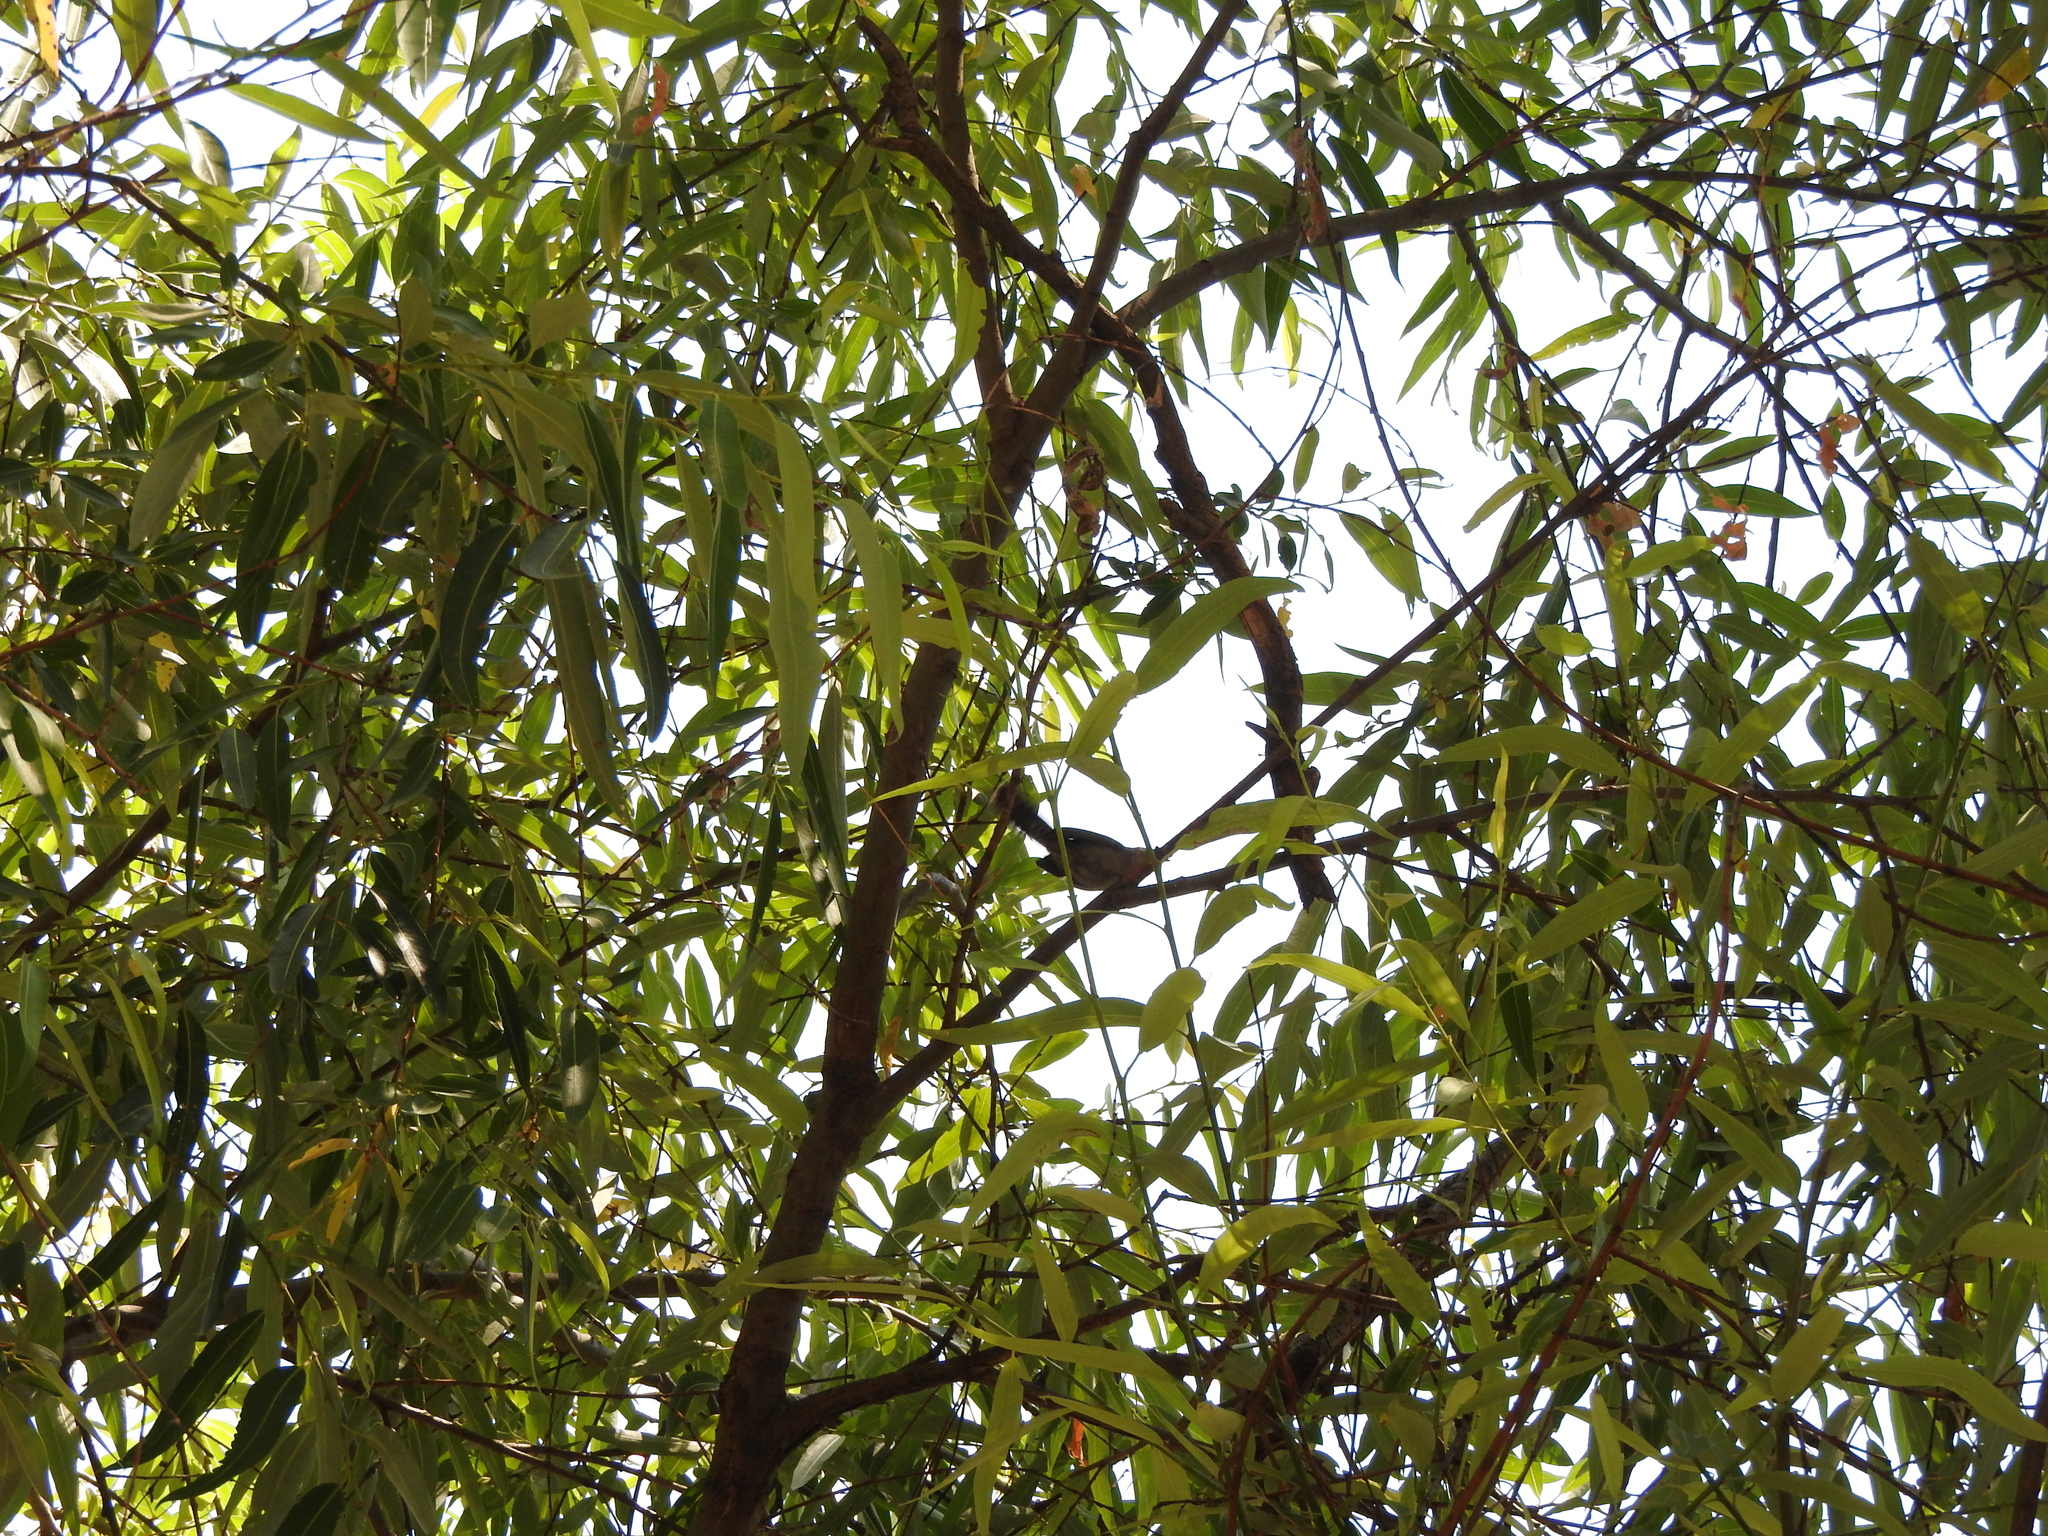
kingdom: Animalia
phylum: Chordata
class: Aves
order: Passeriformes
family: Troglodytidae
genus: Thryomanes
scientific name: Thryomanes bewickii
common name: Bewick's wren
